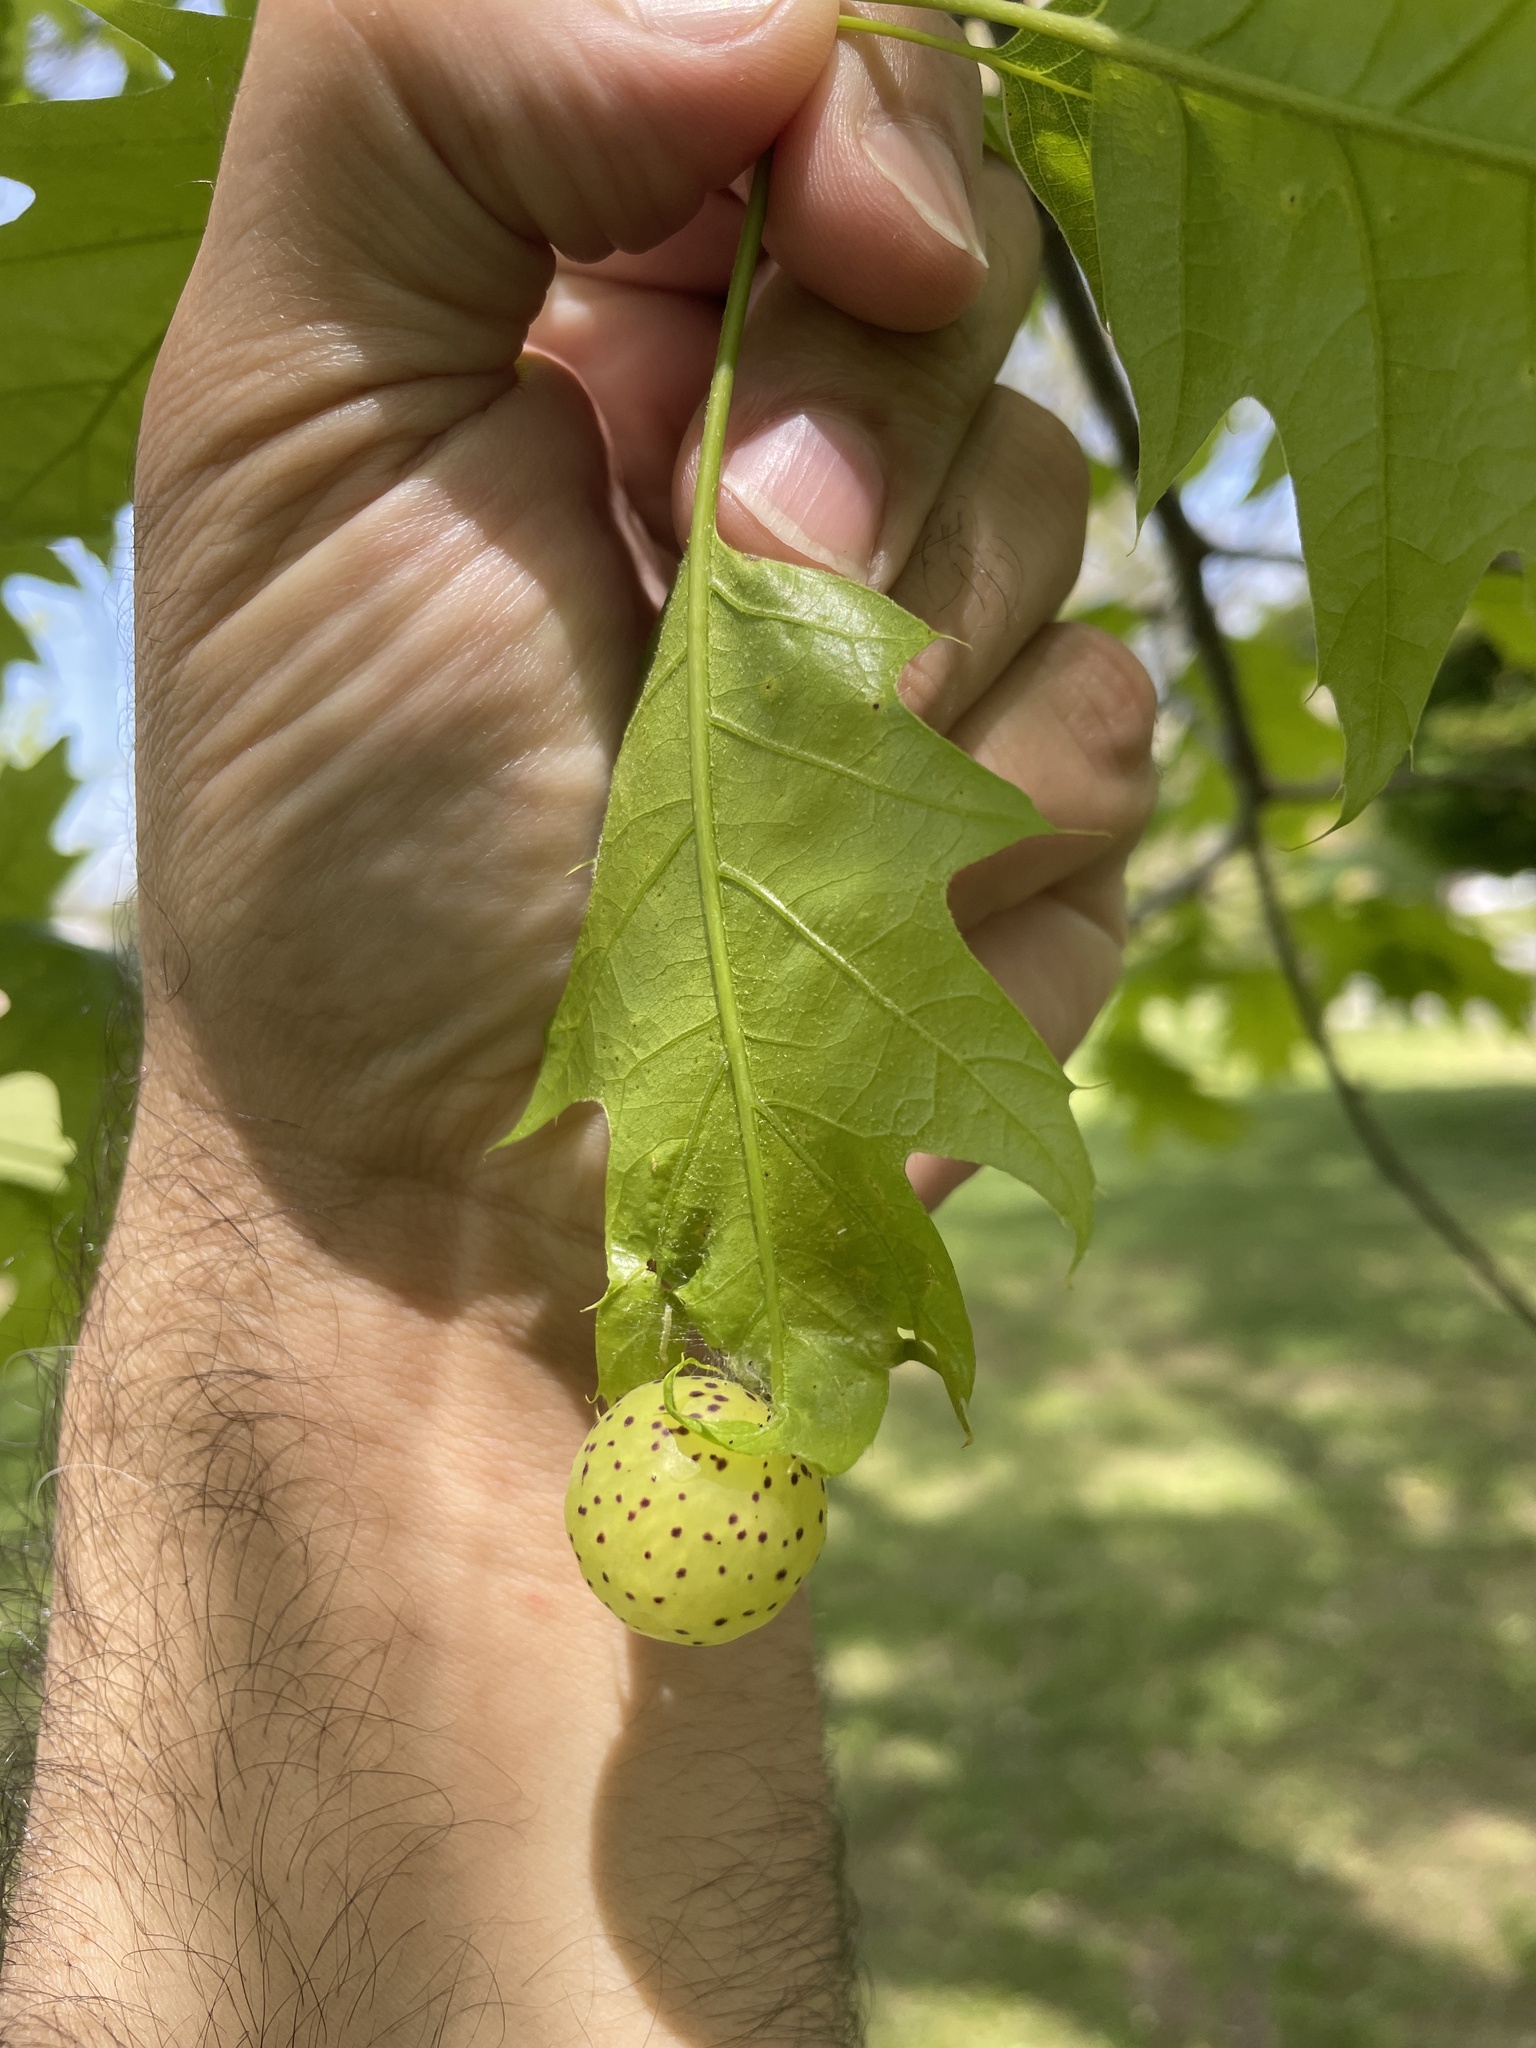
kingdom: Animalia
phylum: Arthropoda
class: Insecta
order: Hymenoptera
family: Cynipidae
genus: Amphibolips
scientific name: Amphibolips
